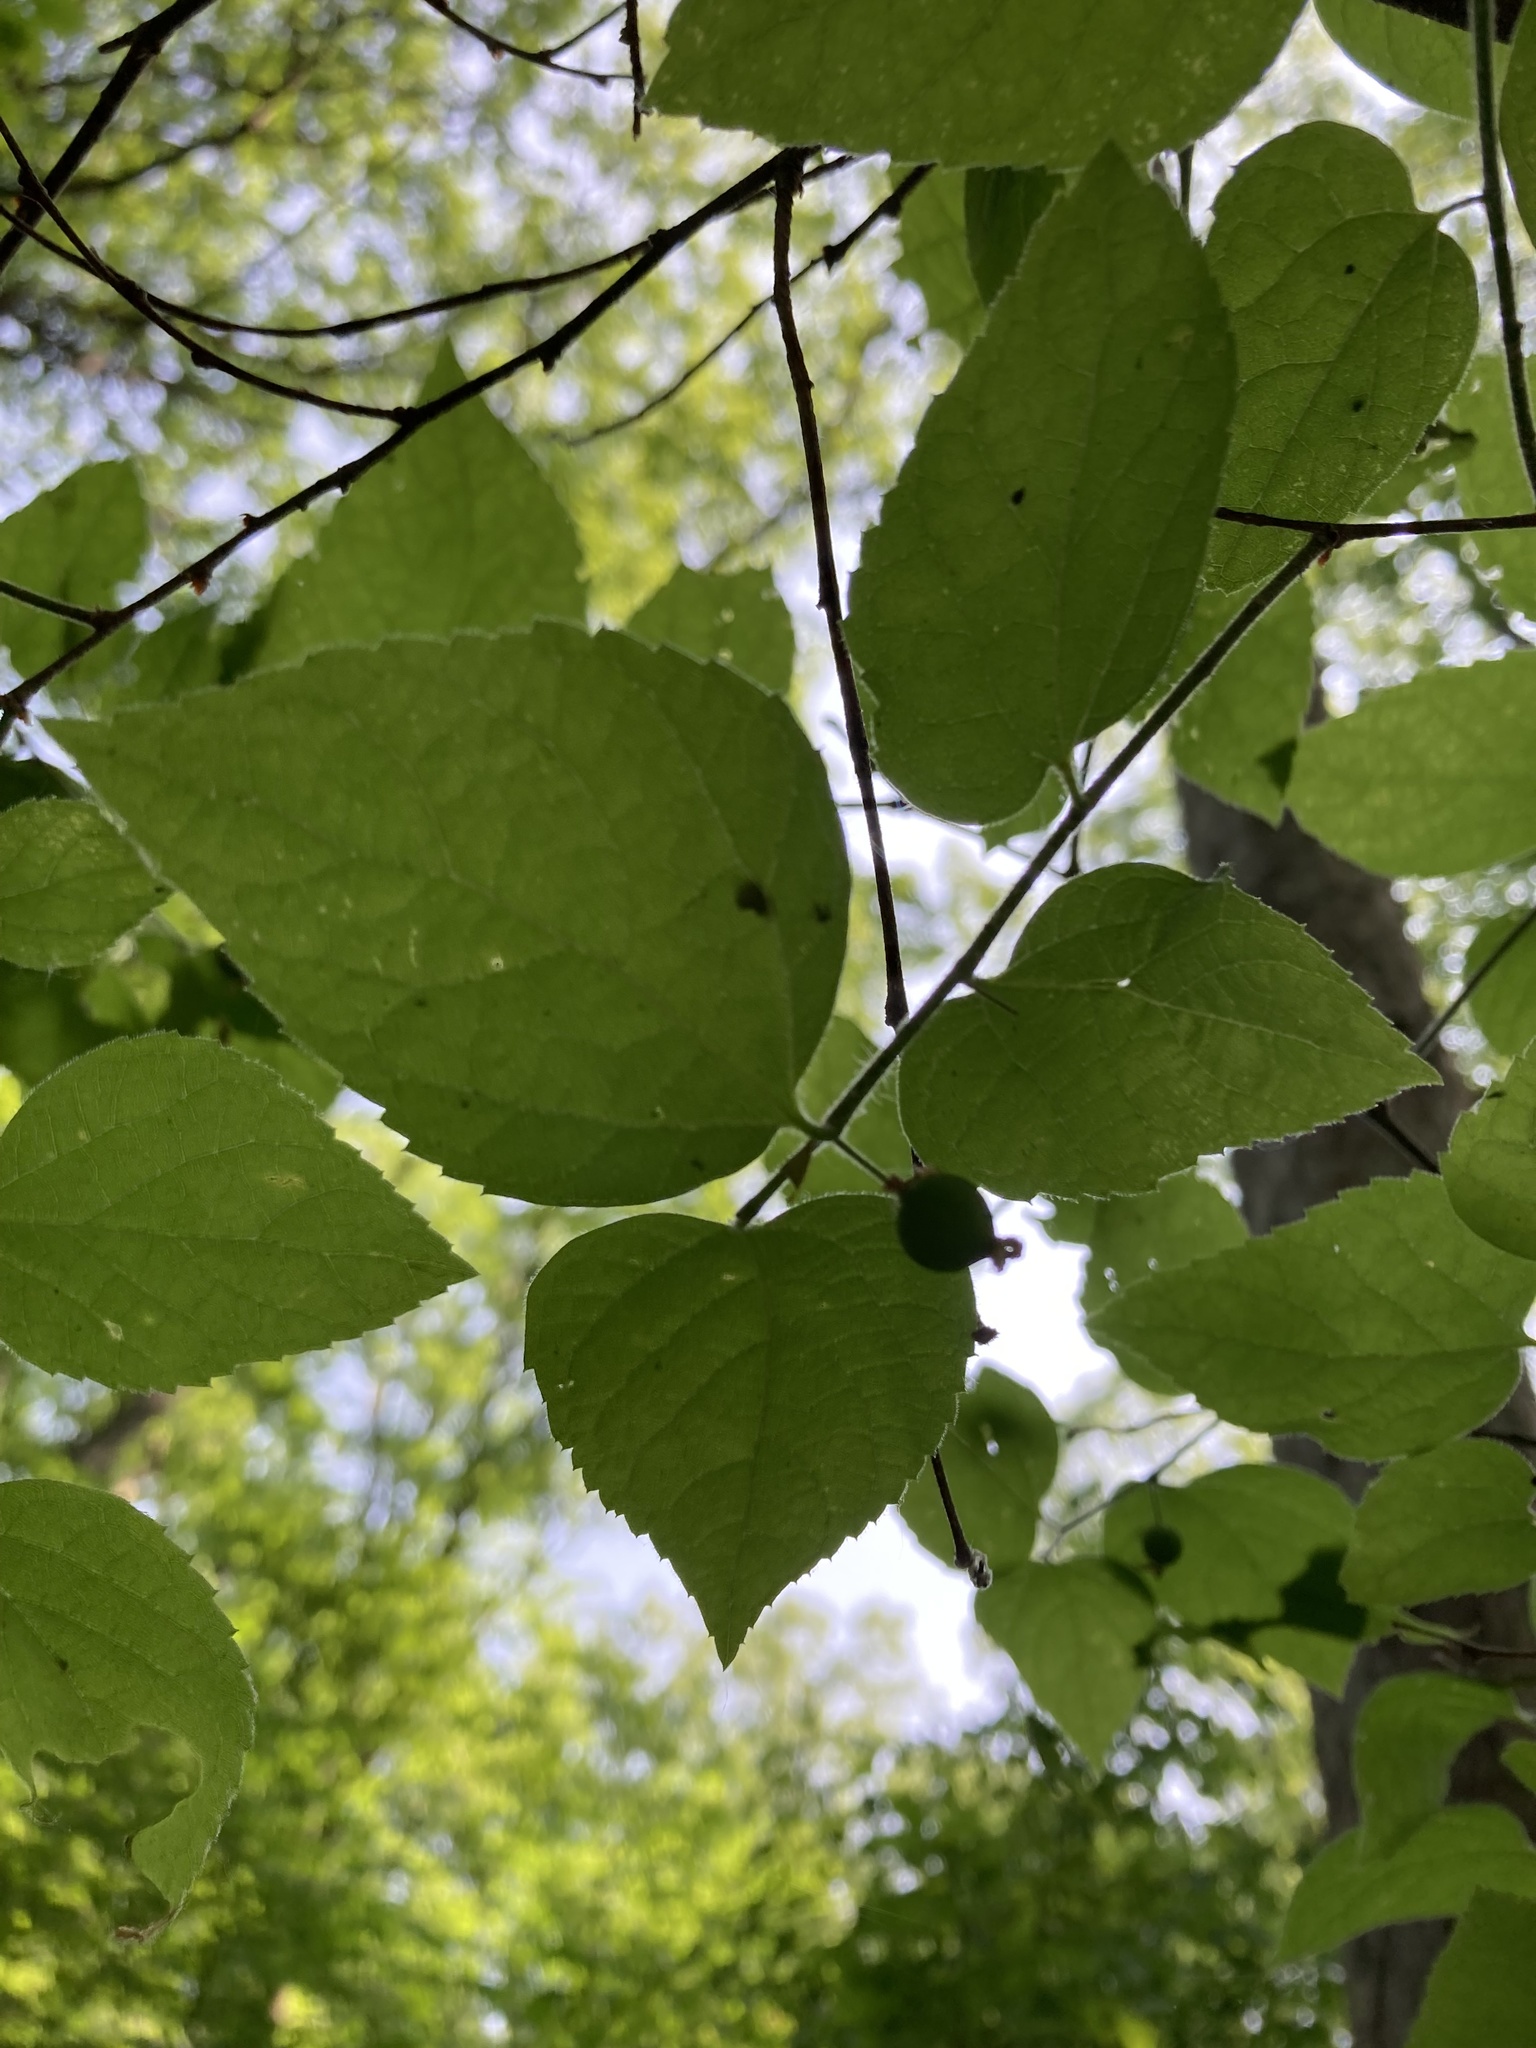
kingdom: Plantae
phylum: Tracheophyta
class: Magnoliopsida
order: Rosales
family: Cannabaceae
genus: Celtis
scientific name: Celtis tenuifolia
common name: Georgia hackberry
